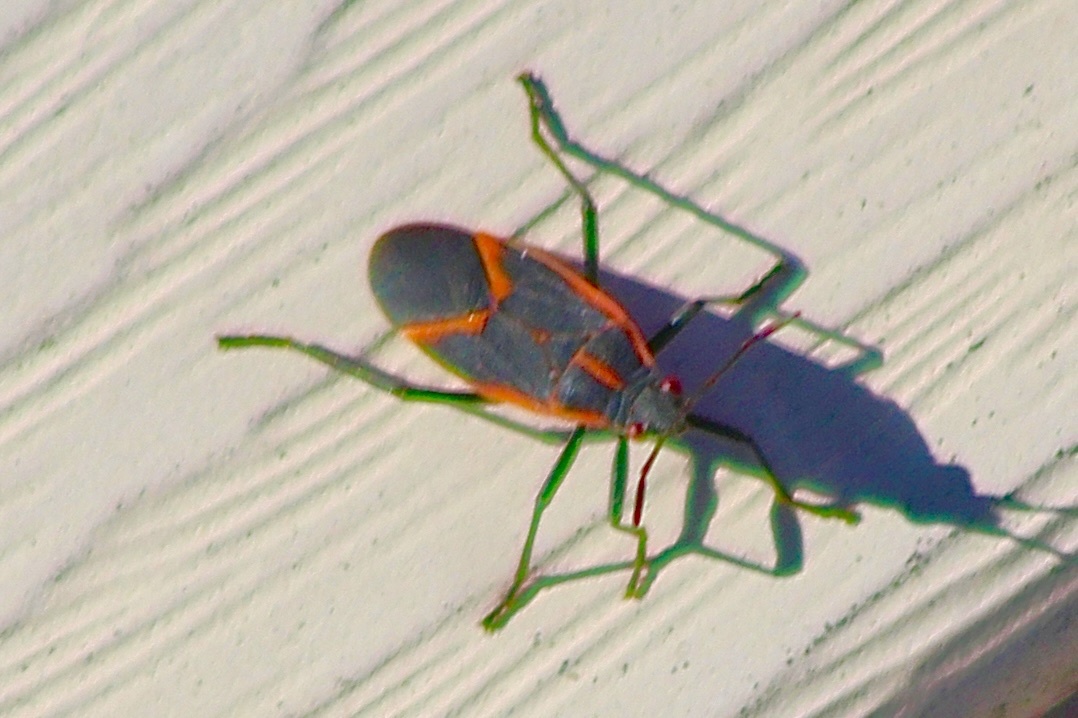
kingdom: Animalia
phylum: Arthropoda
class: Insecta
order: Hemiptera
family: Rhopalidae
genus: Boisea
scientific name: Boisea trivittata
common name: Boxelder bug
